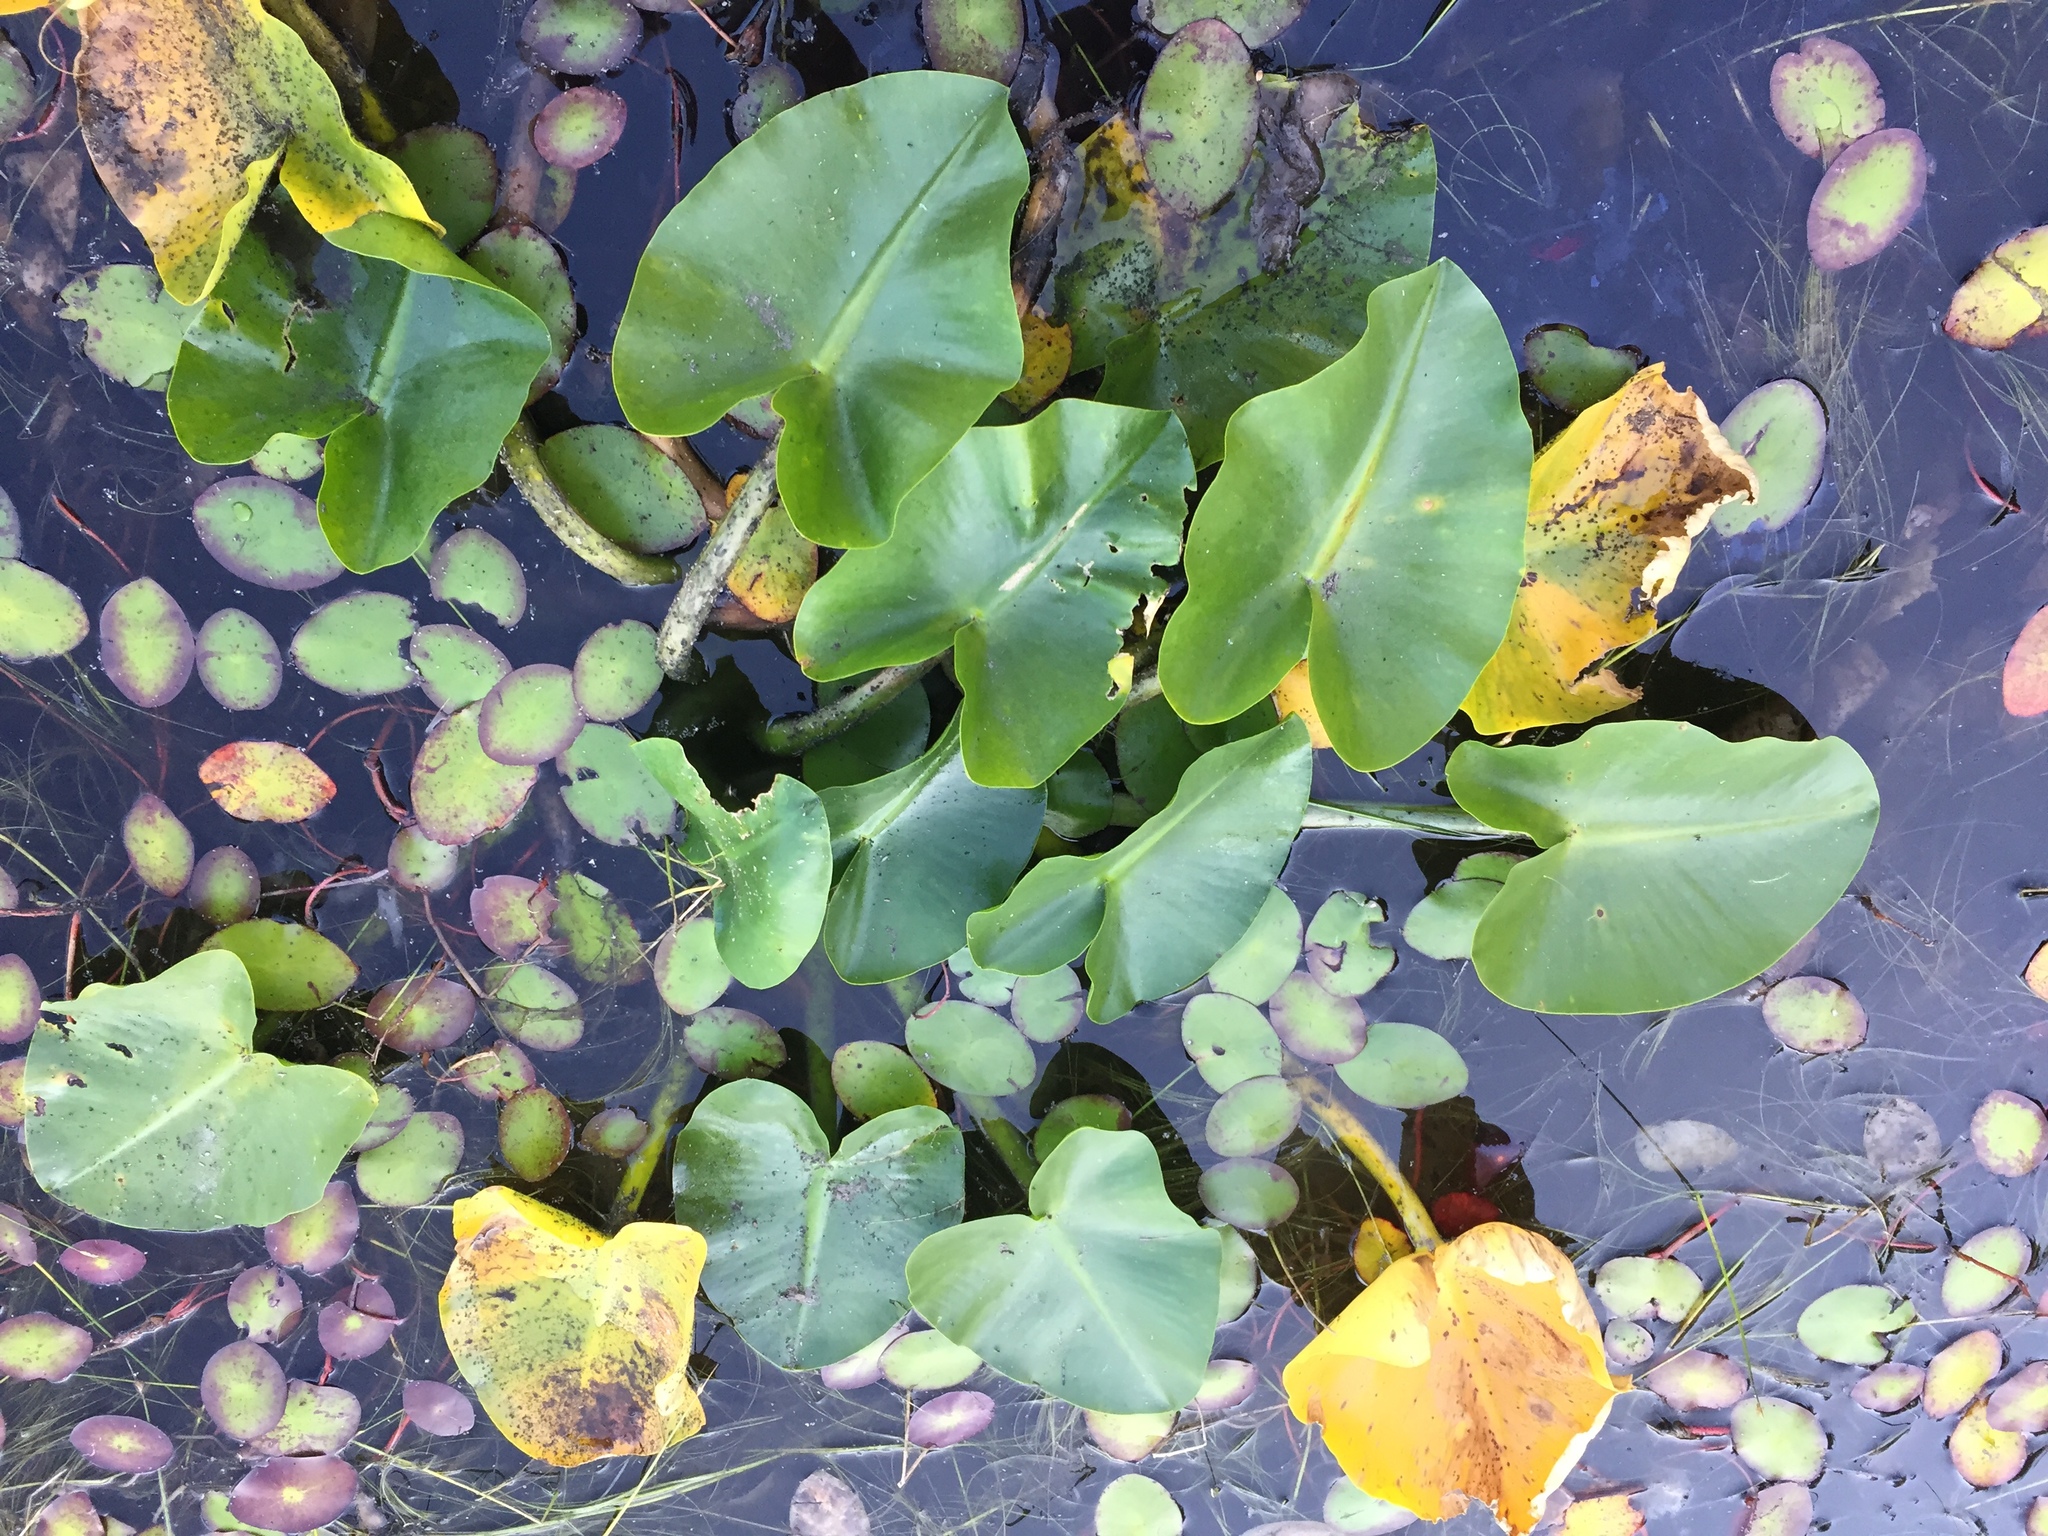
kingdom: Plantae
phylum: Tracheophyta
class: Magnoliopsida
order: Nymphaeales
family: Nymphaeaceae
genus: Nuphar
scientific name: Nuphar polysepala
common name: Rocky mountain cow-lily
